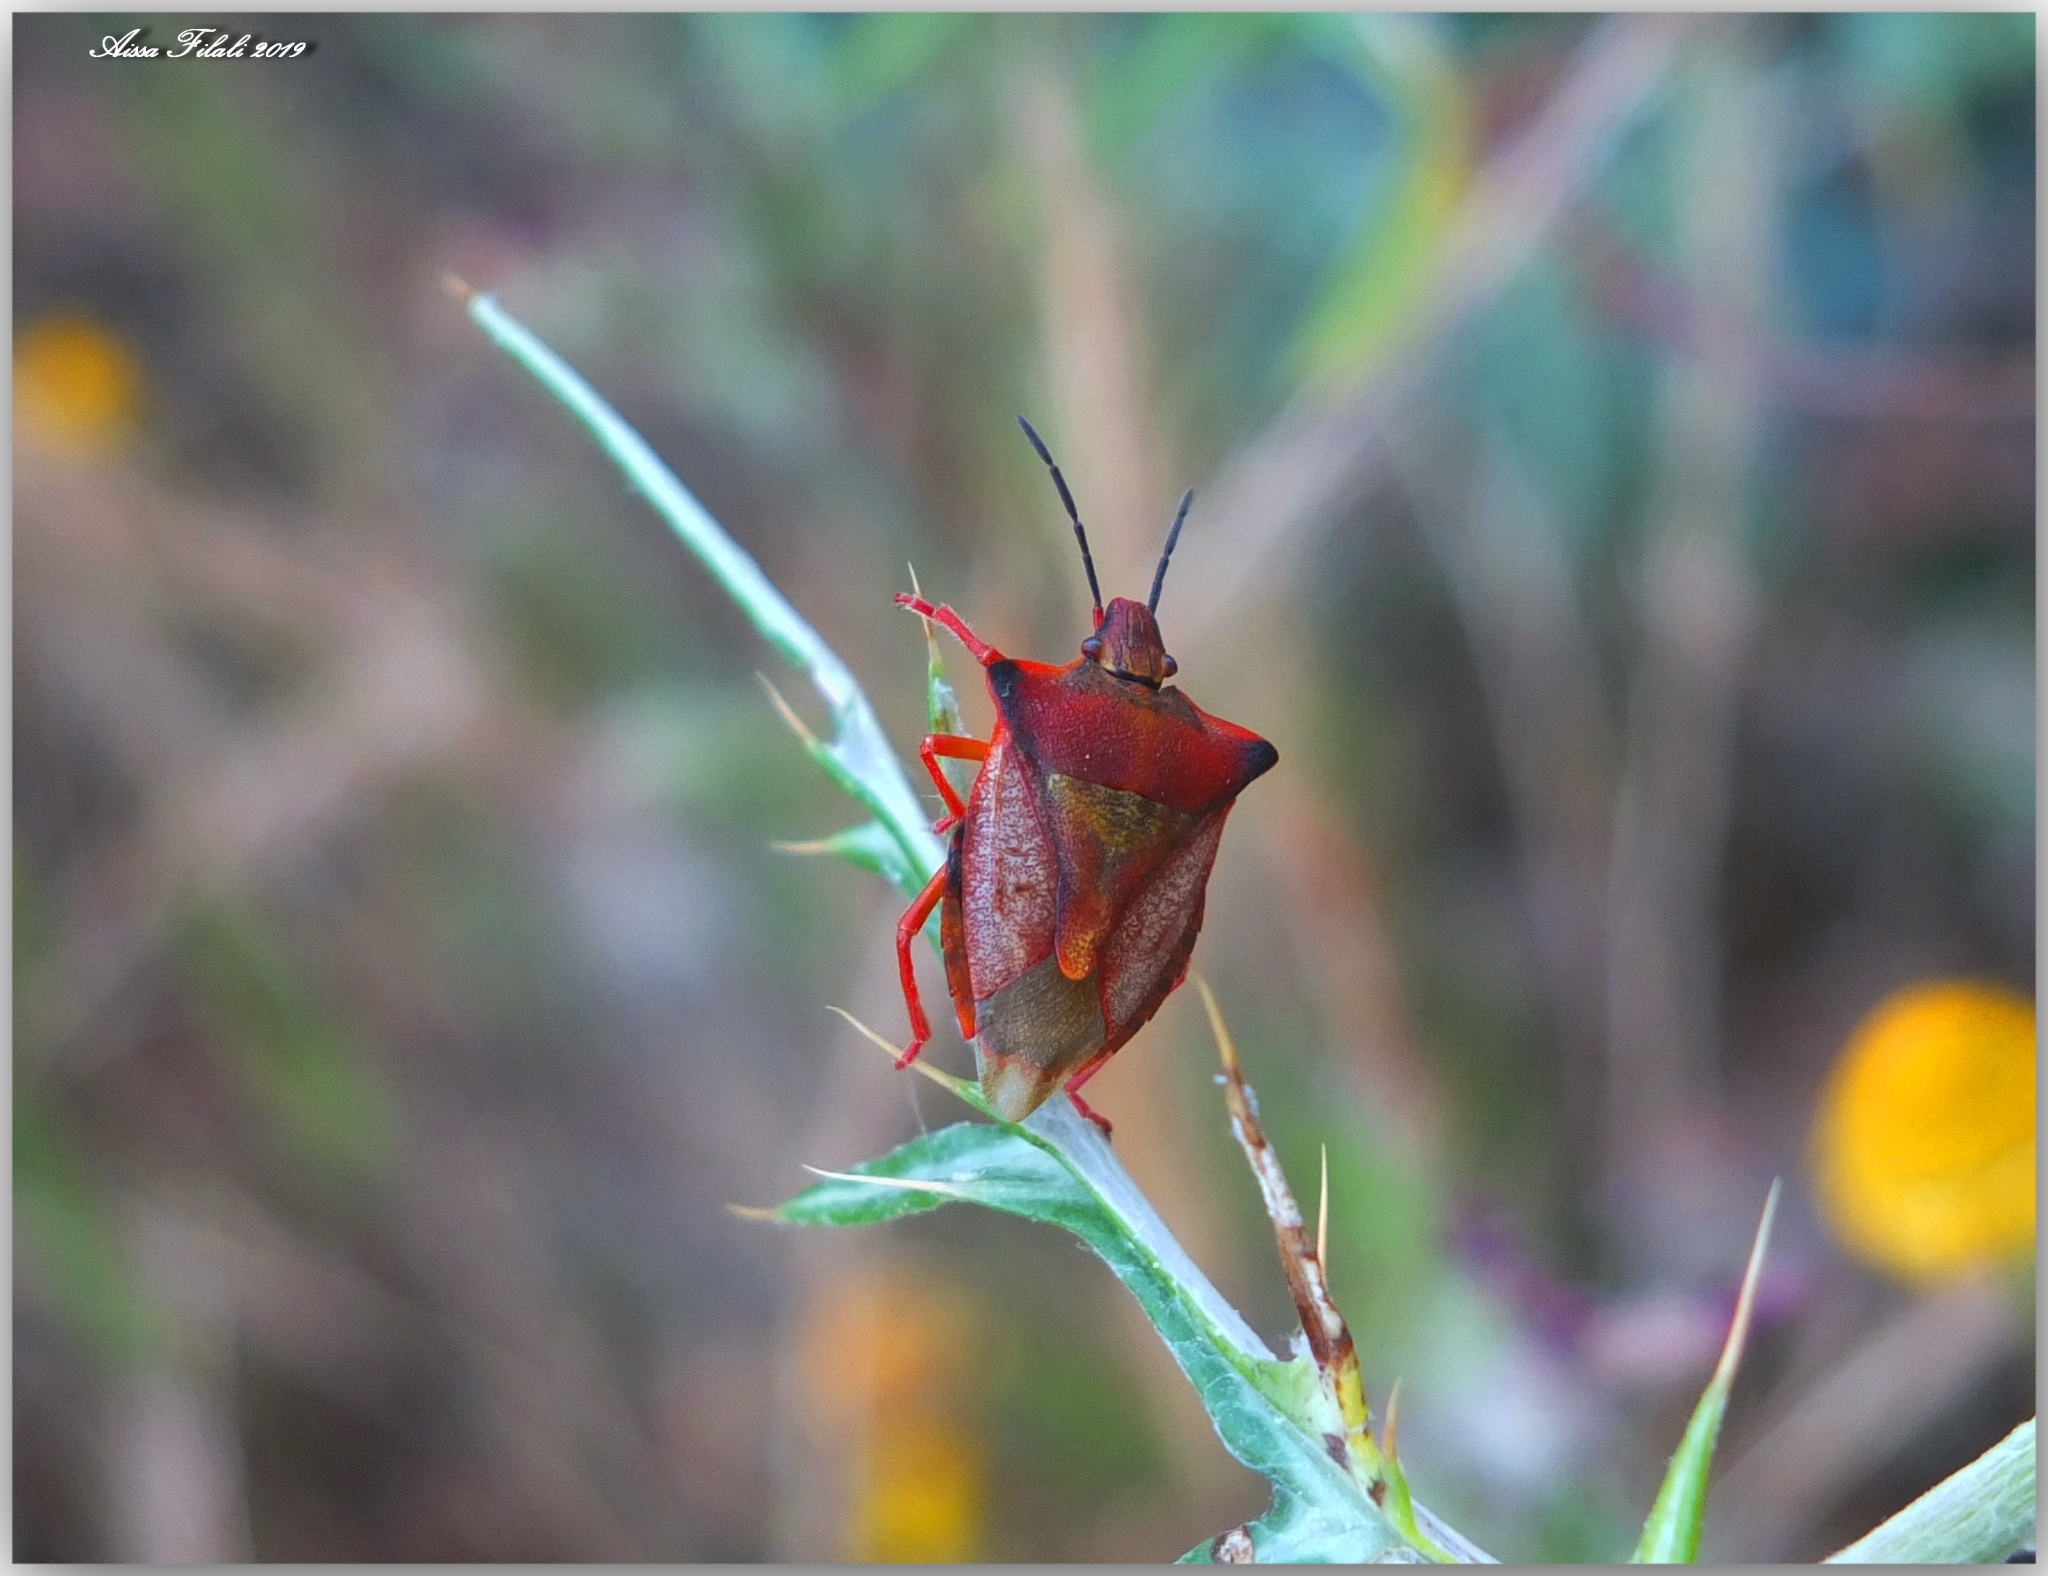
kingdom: Animalia
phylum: Arthropoda
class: Insecta
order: Hemiptera
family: Pentatomidae
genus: Carpocoris
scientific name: Carpocoris mediterraneus
